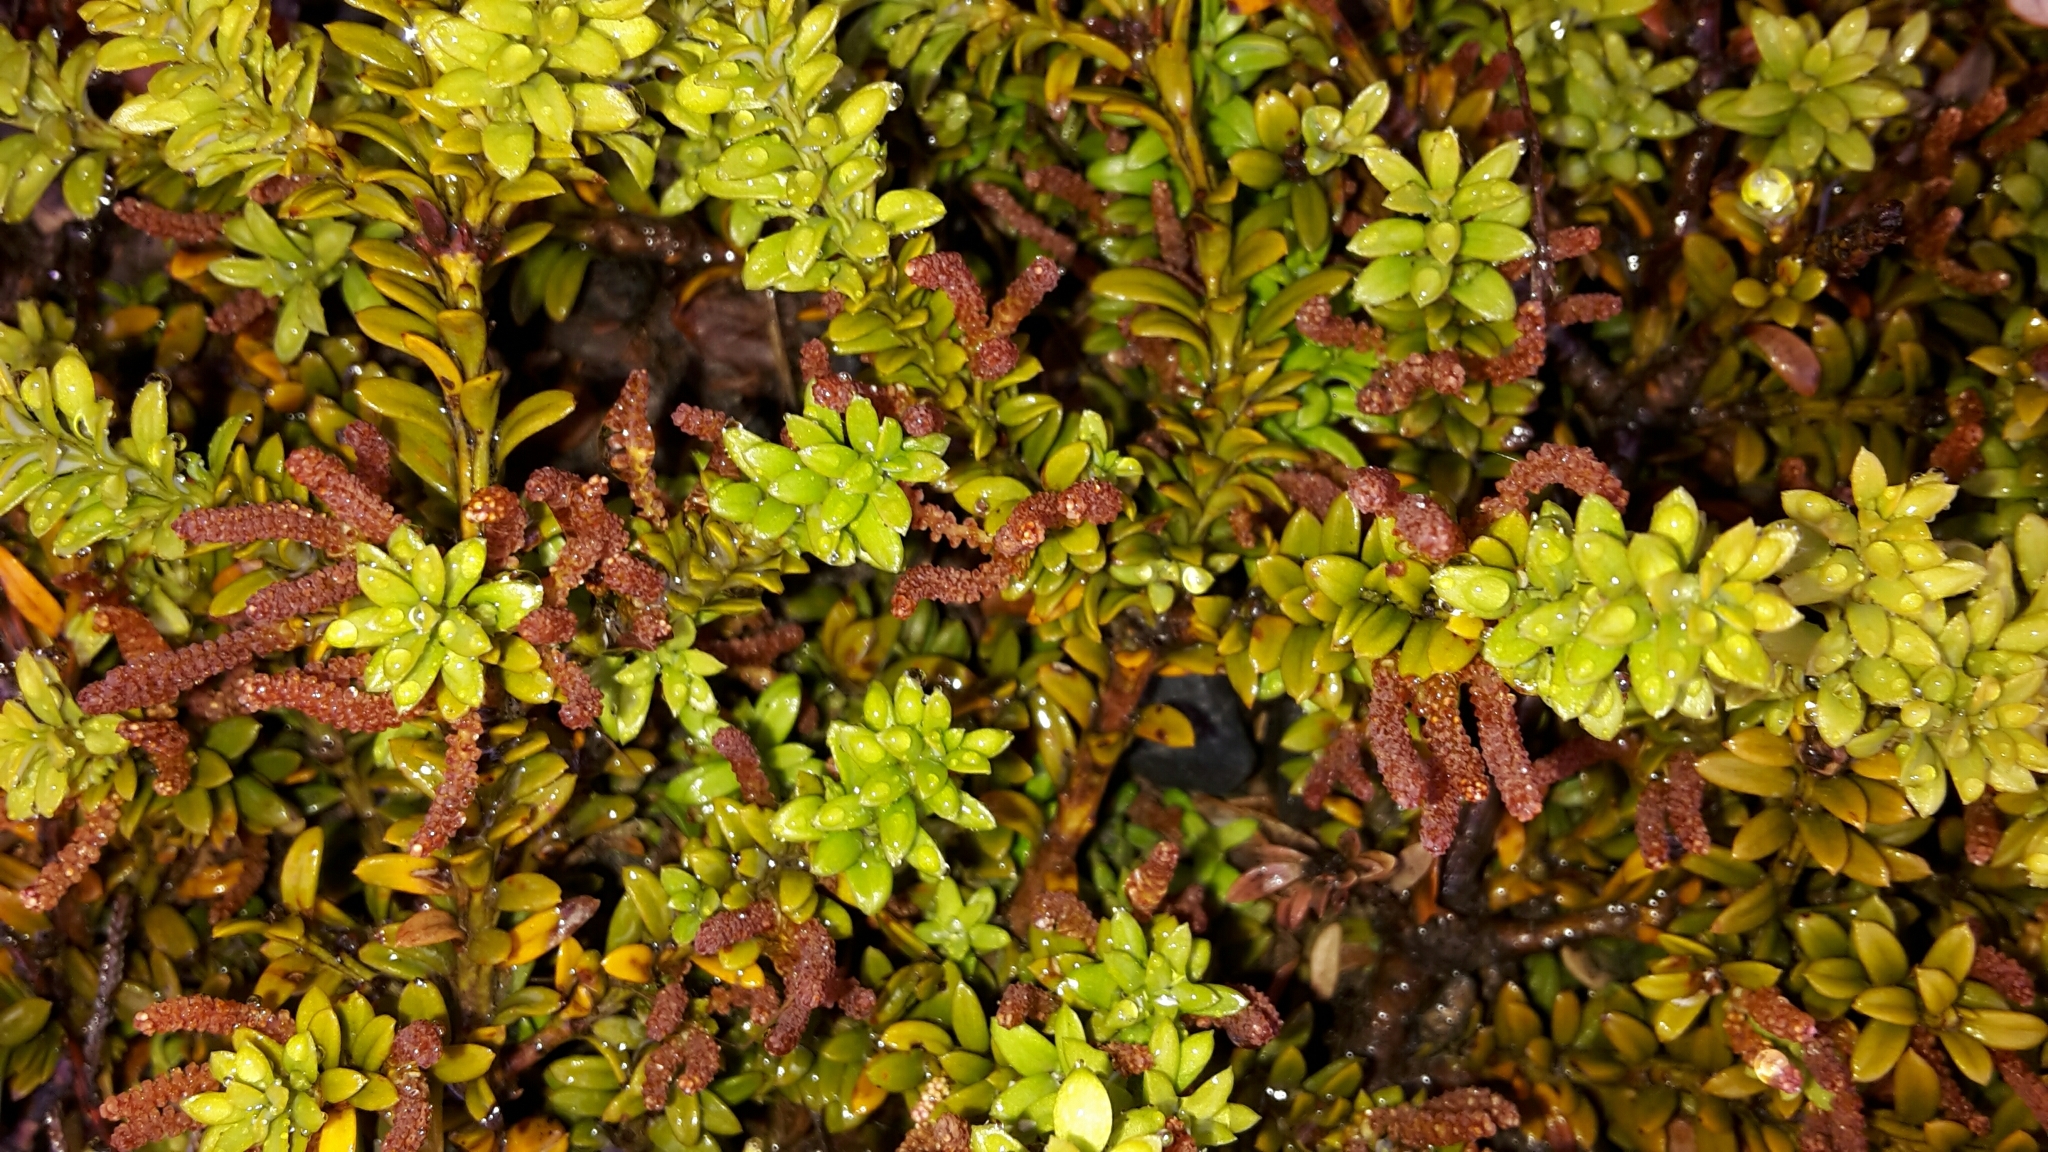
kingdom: Plantae
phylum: Tracheophyta
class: Pinopsida
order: Pinales
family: Podocarpaceae
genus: Podocarpus
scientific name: Podocarpus nivalis
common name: Alpine totara
